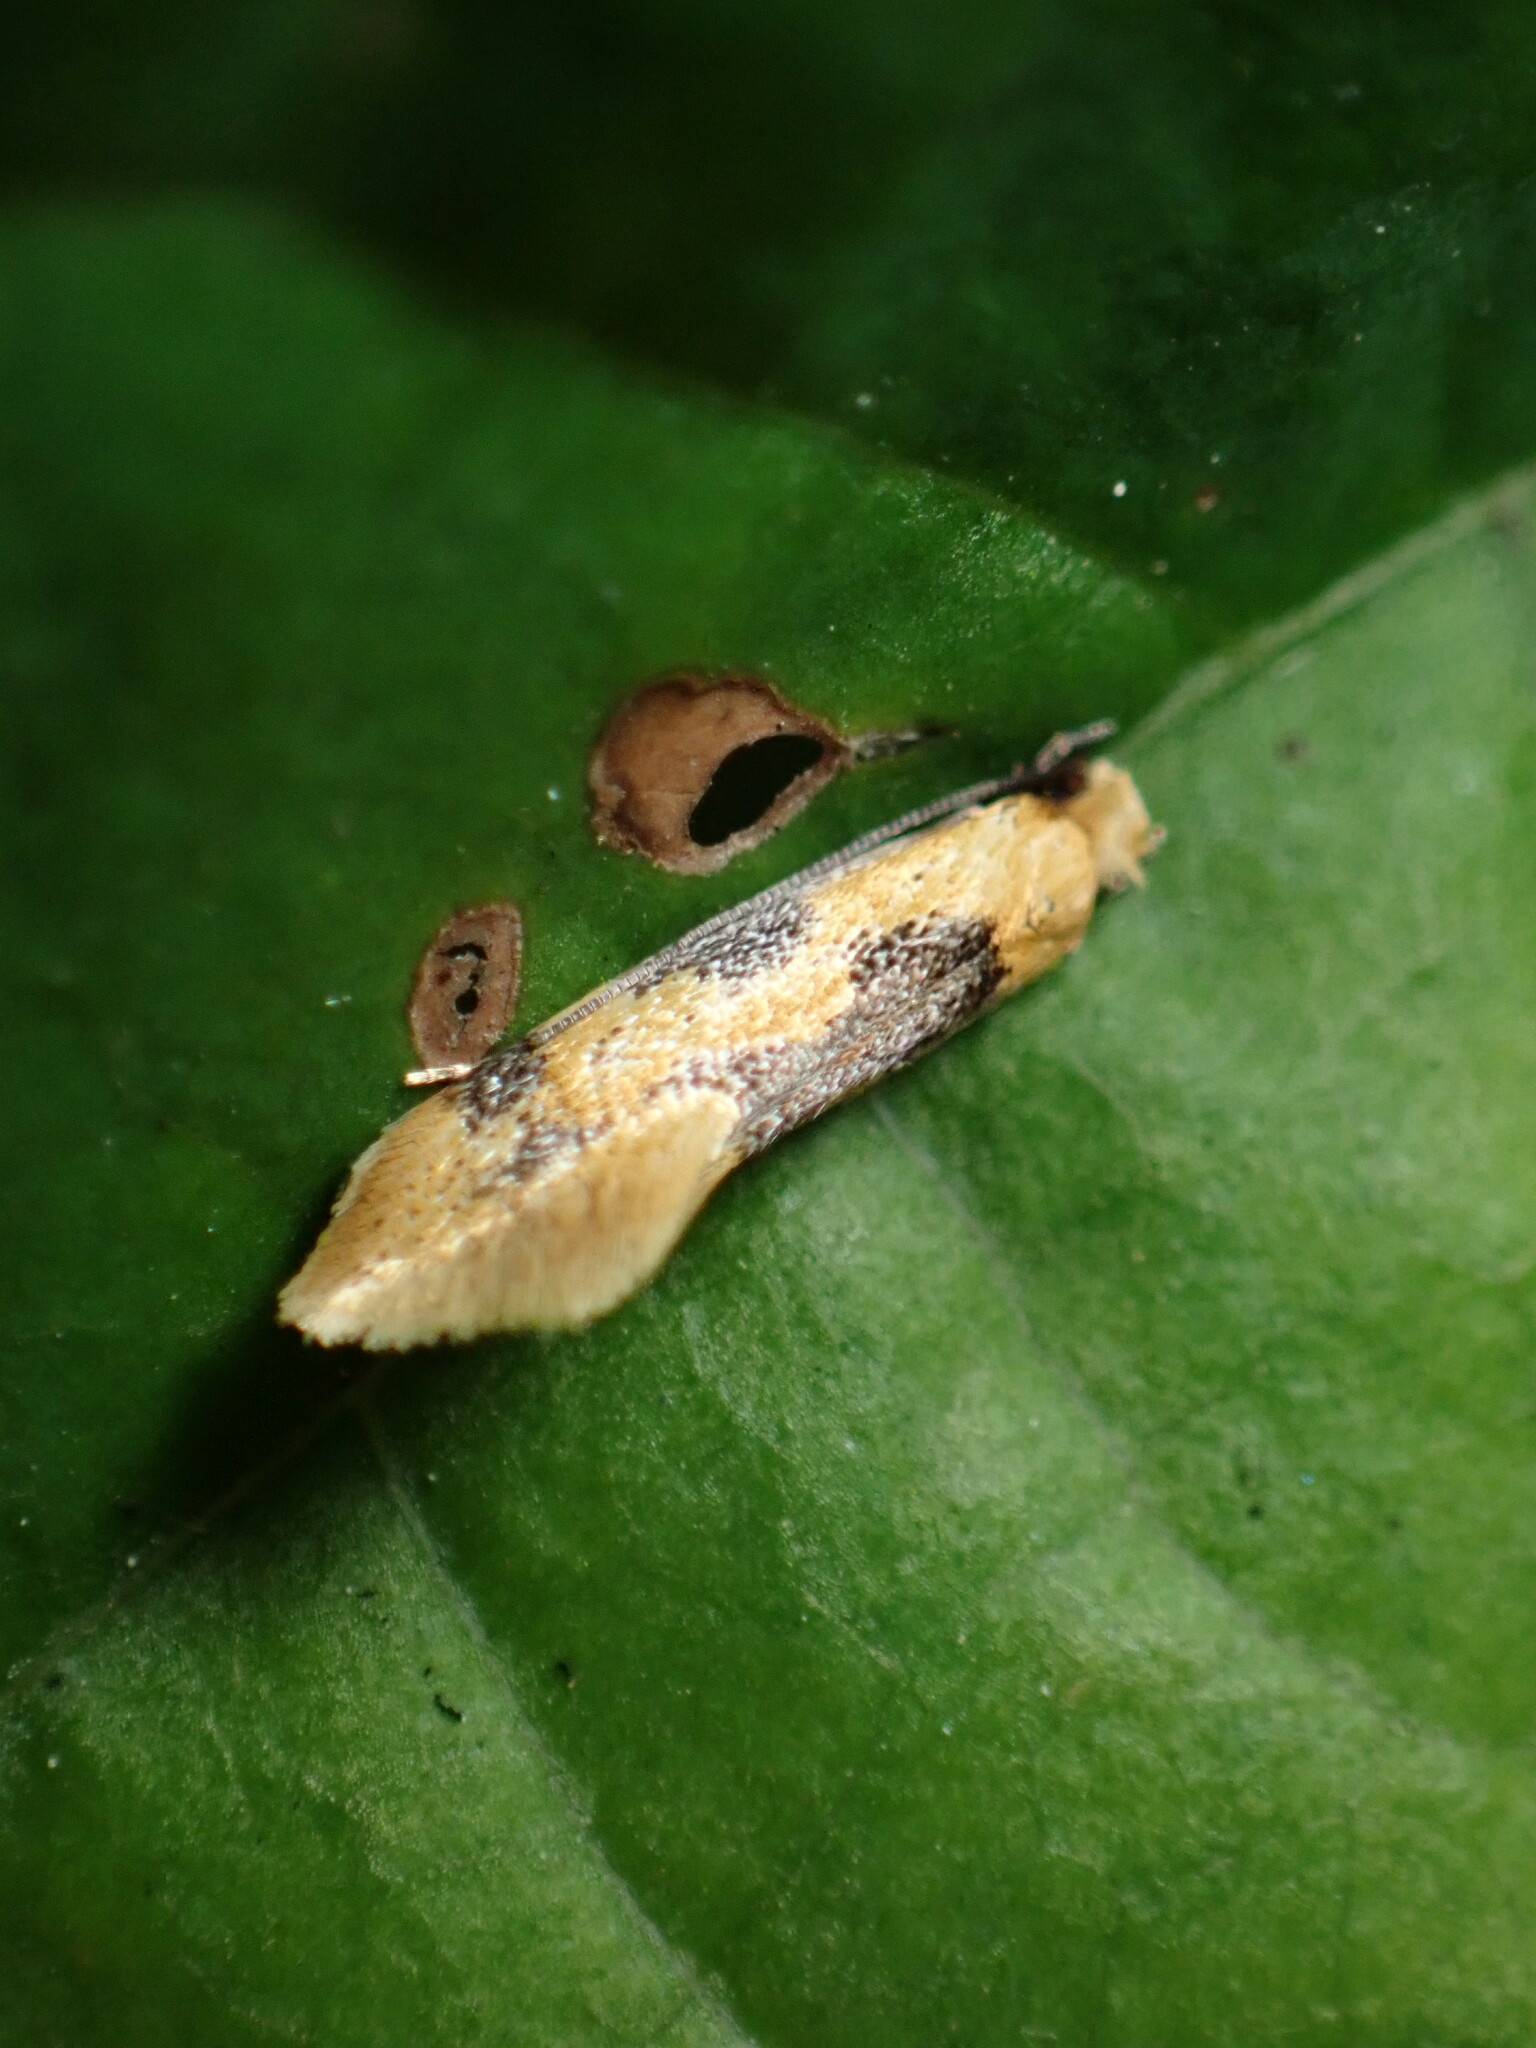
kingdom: Animalia
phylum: Arthropoda
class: Insecta
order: Lepidoptera
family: Meessiidae
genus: Hybroma
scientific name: Hybroma servulella
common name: Yellow wave moth
